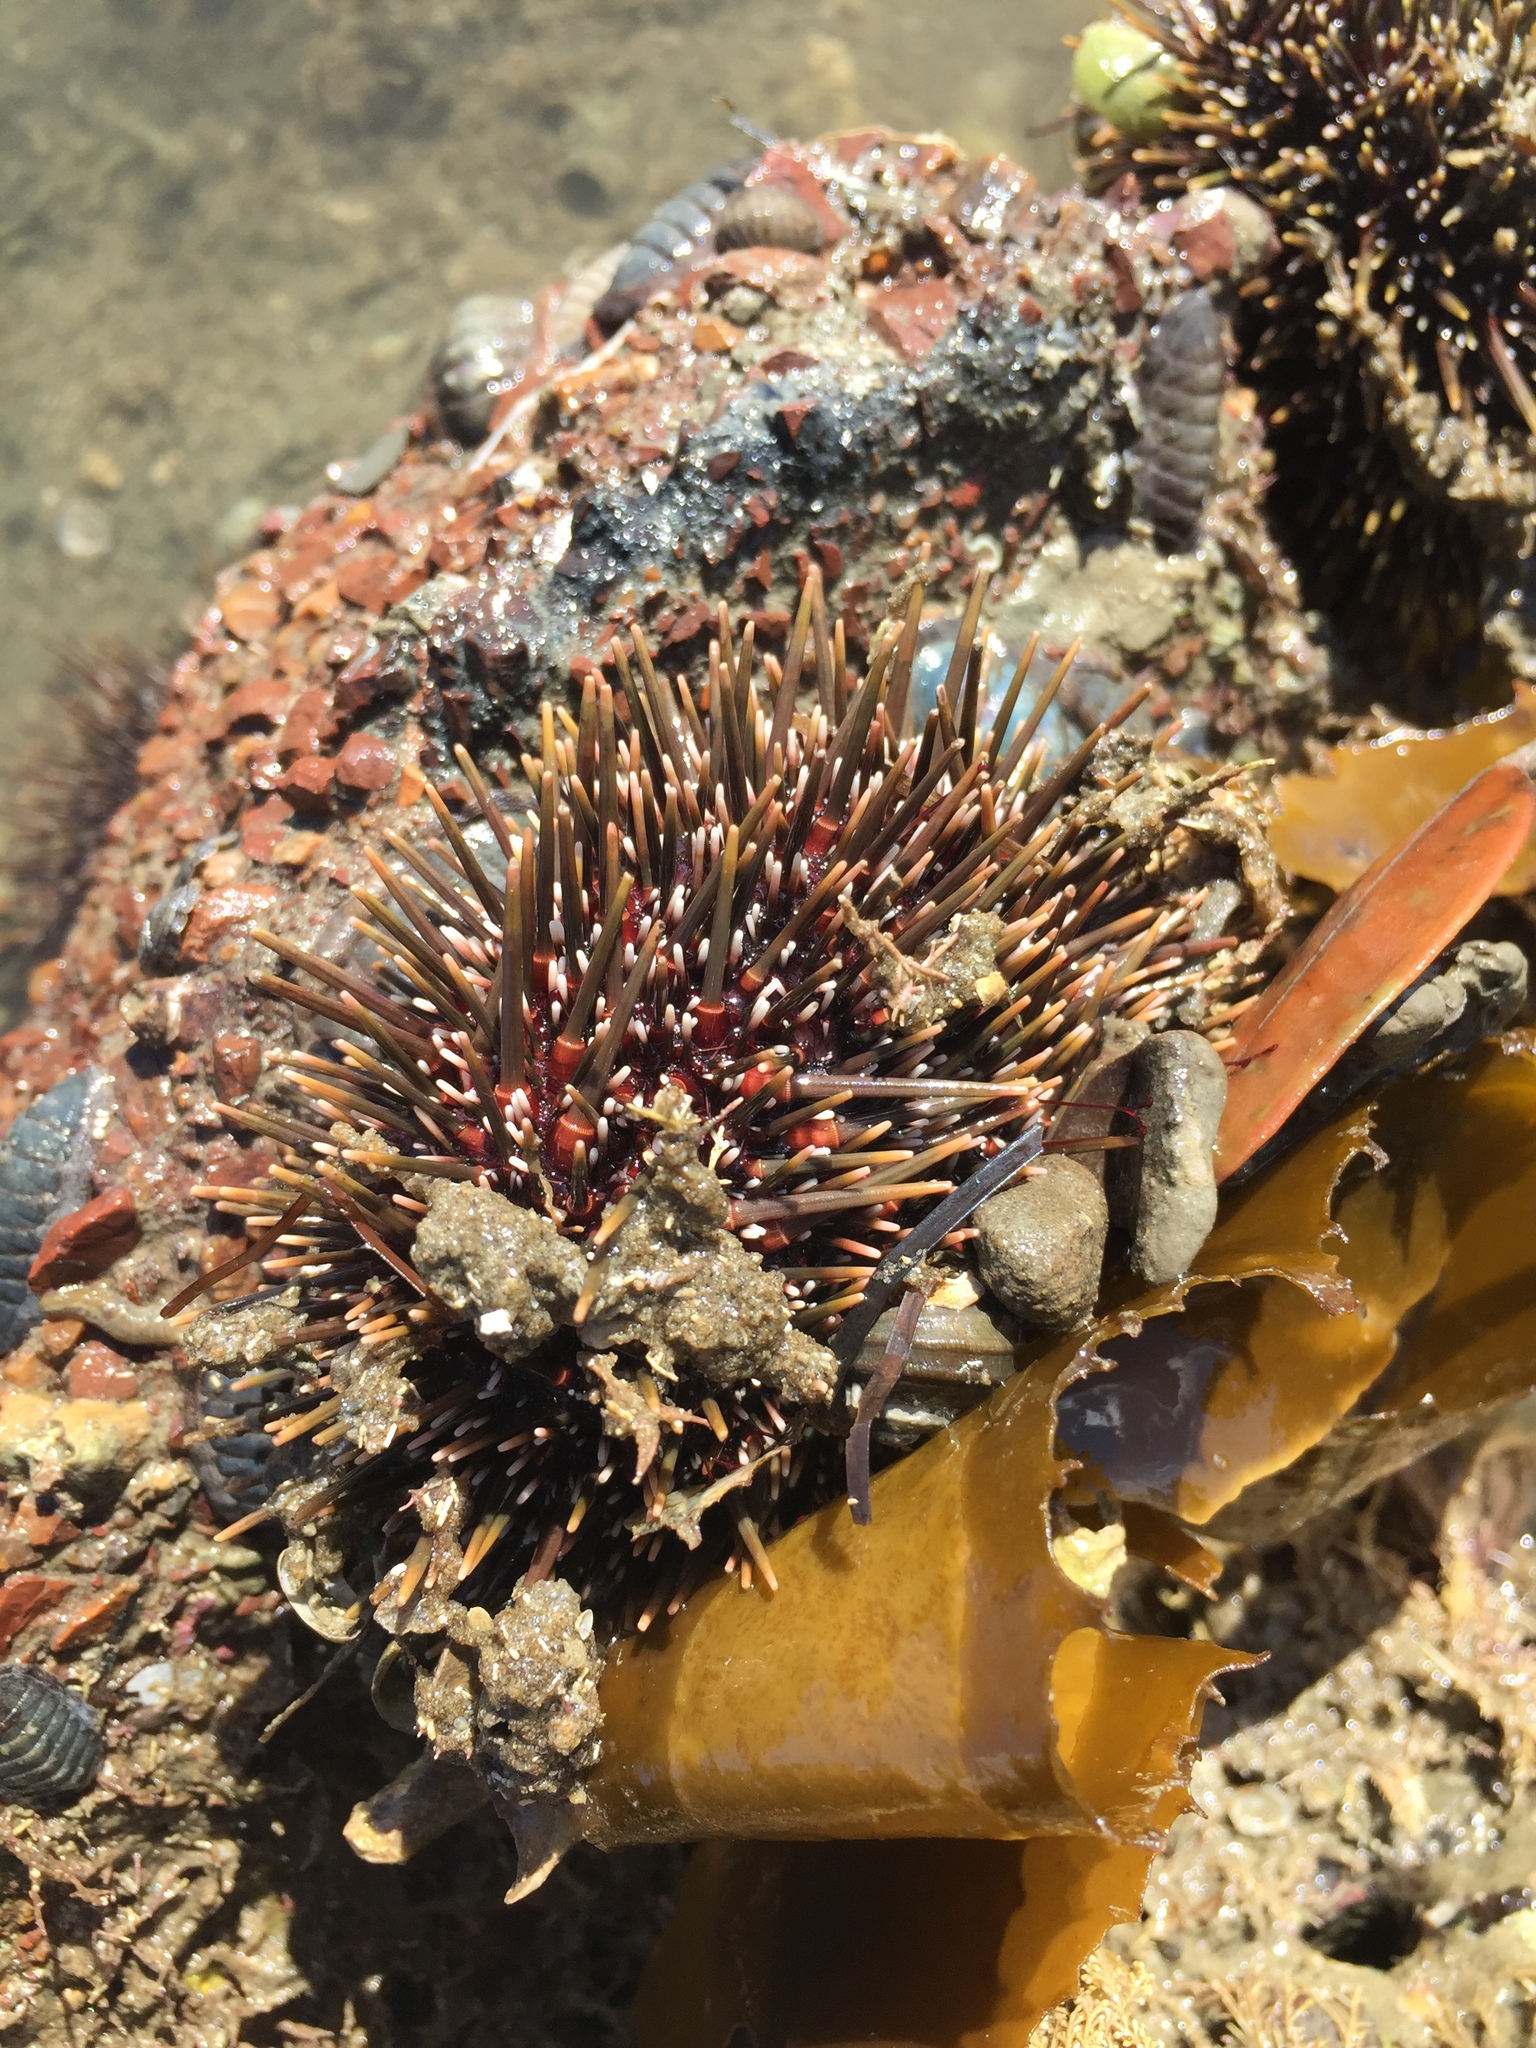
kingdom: Animalia
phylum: Echinodermata
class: Echinoidea
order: Camarodonta
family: Echinometridae
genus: Evechinus
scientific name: Evechinus chloroticus
